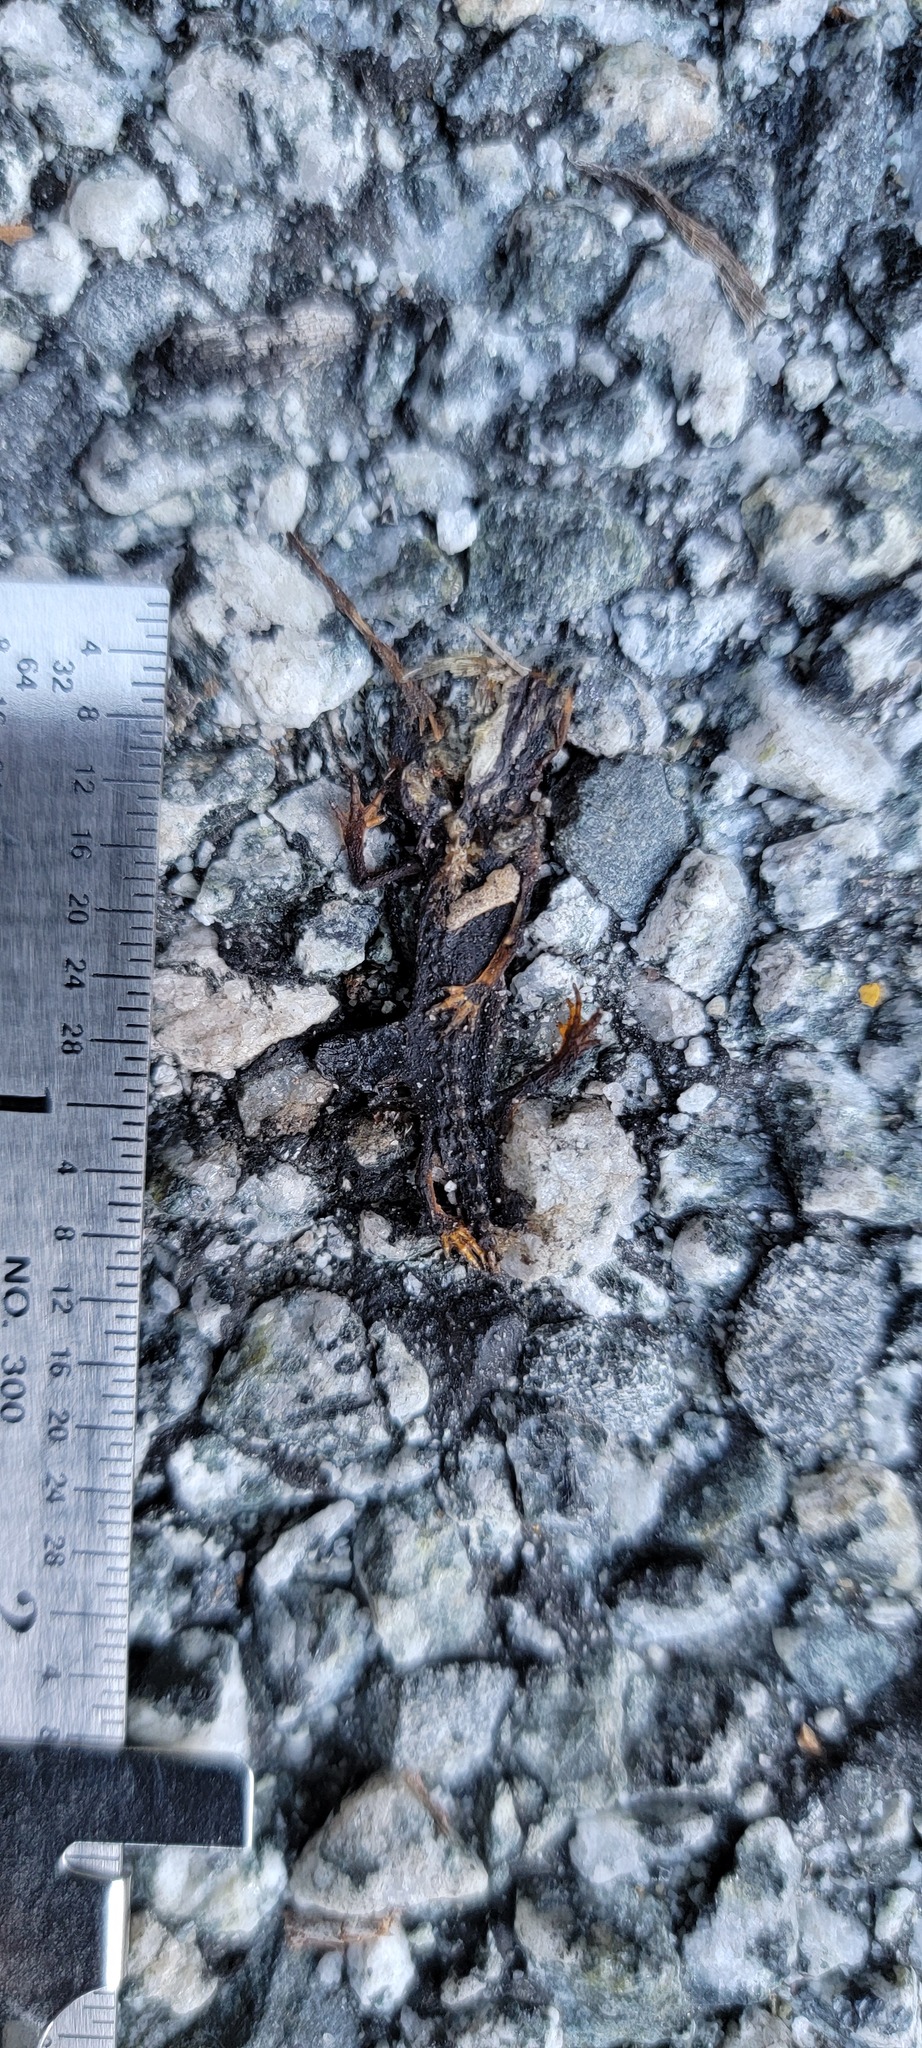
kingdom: Animalia
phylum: Chordata
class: Amphibia
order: Caudata
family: Salamandridae
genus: Taricha
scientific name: Taricha
